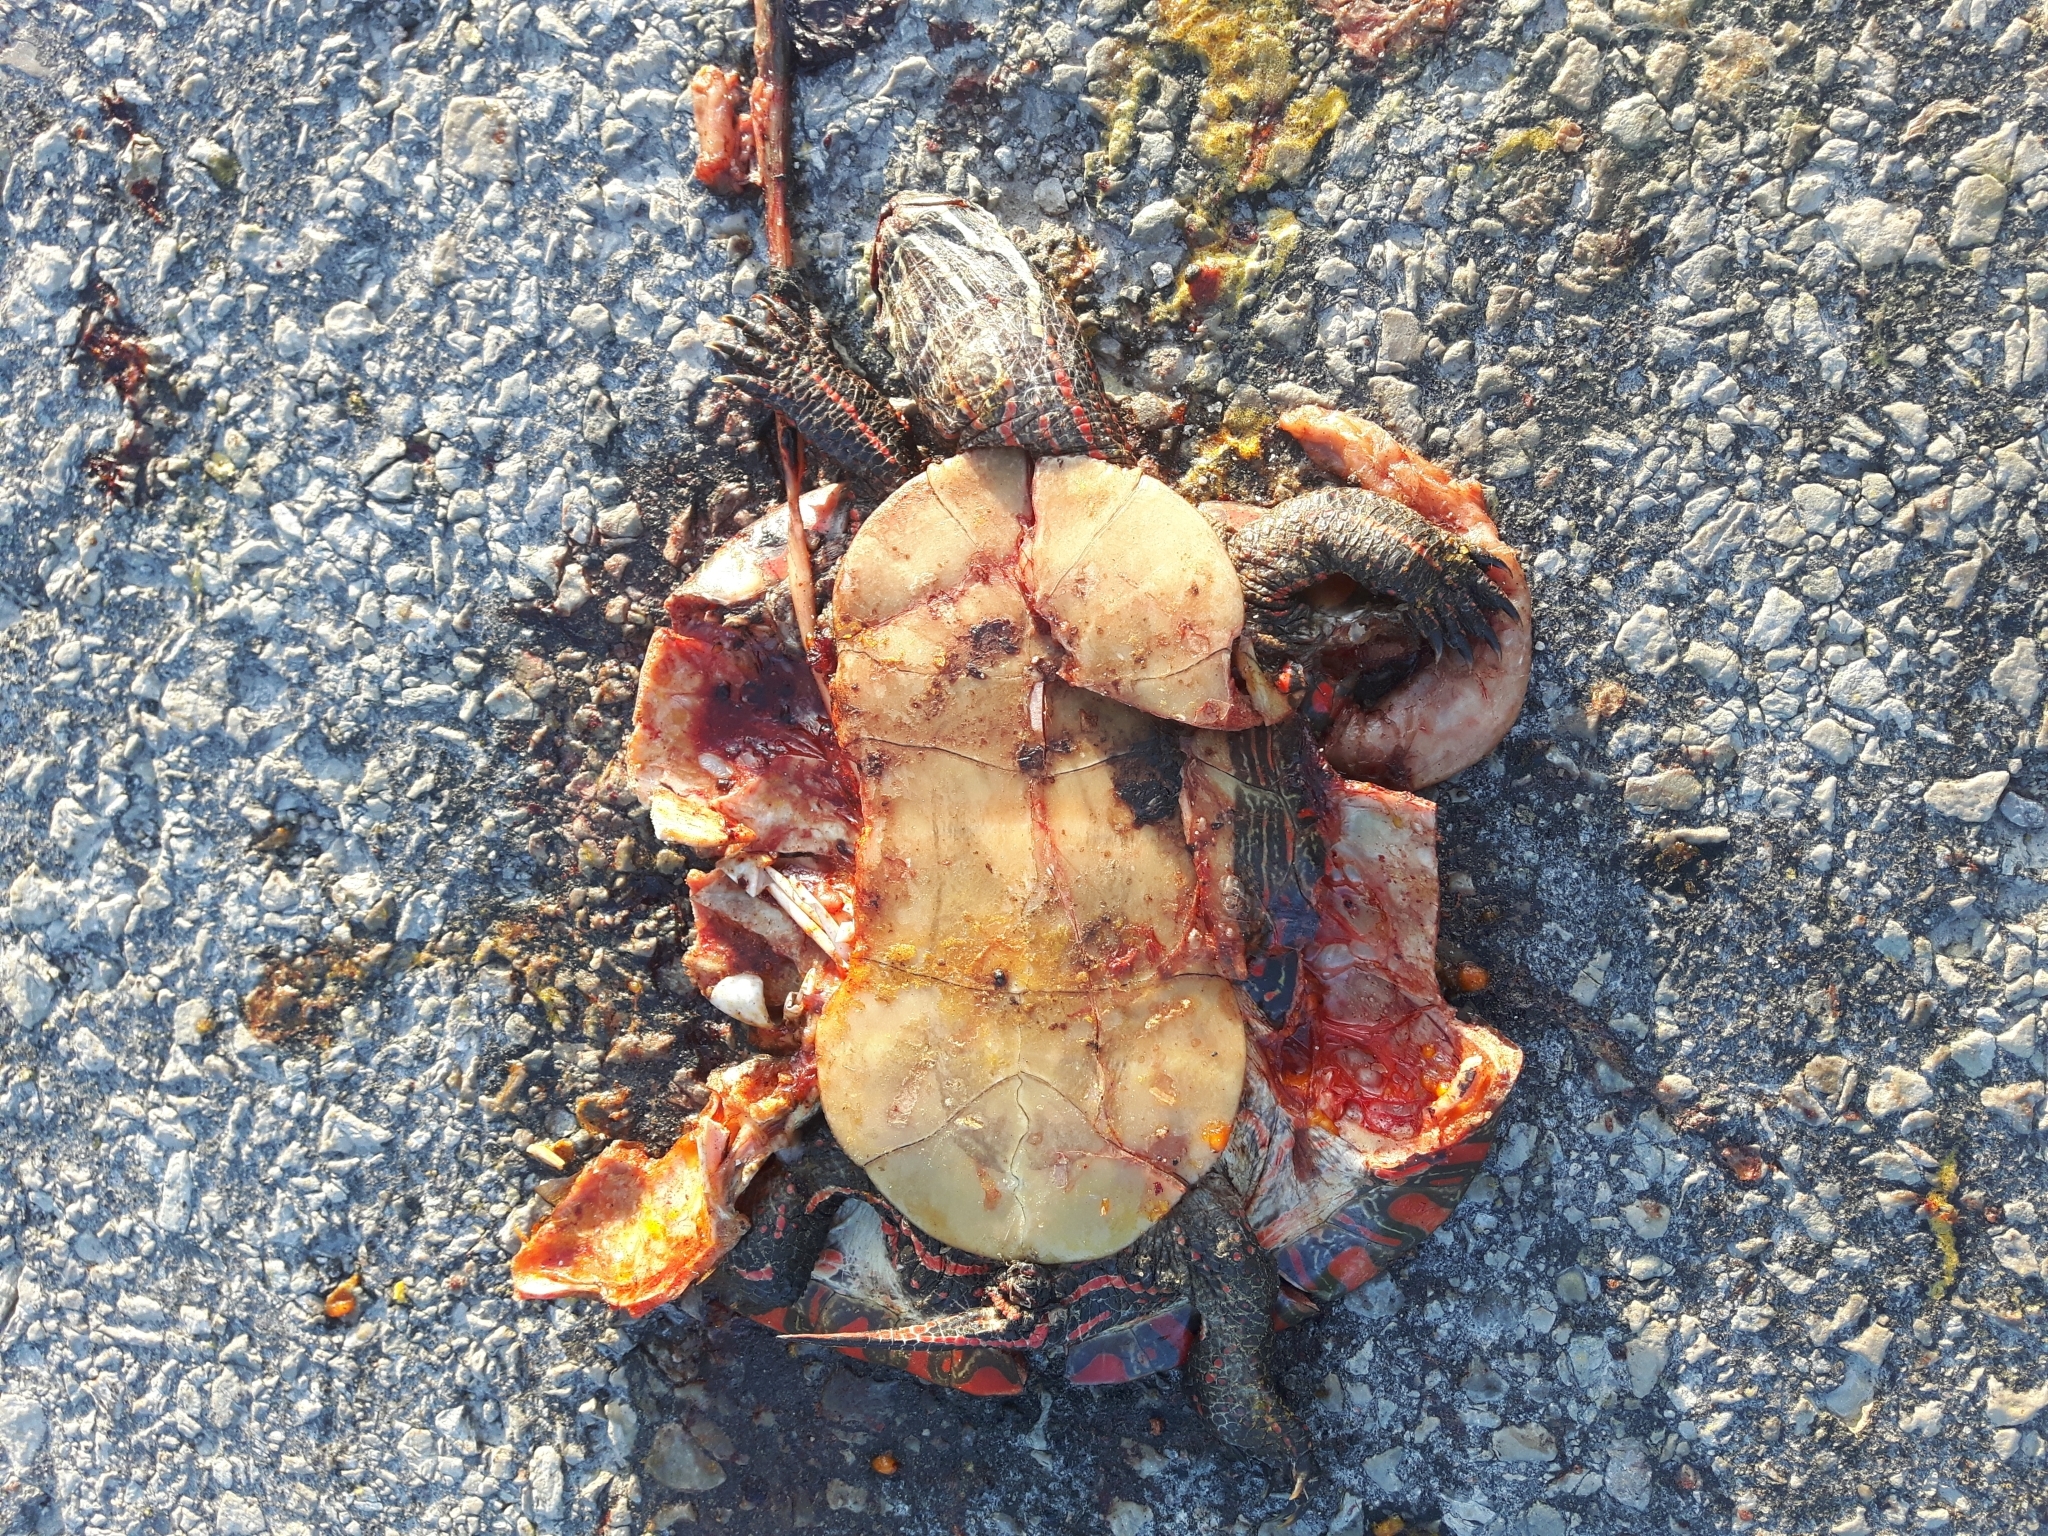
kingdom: Animalia
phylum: Chordata
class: Testudines
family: Emydidae
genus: Chrysemys
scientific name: Chrysemys picta
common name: Painted turtle
